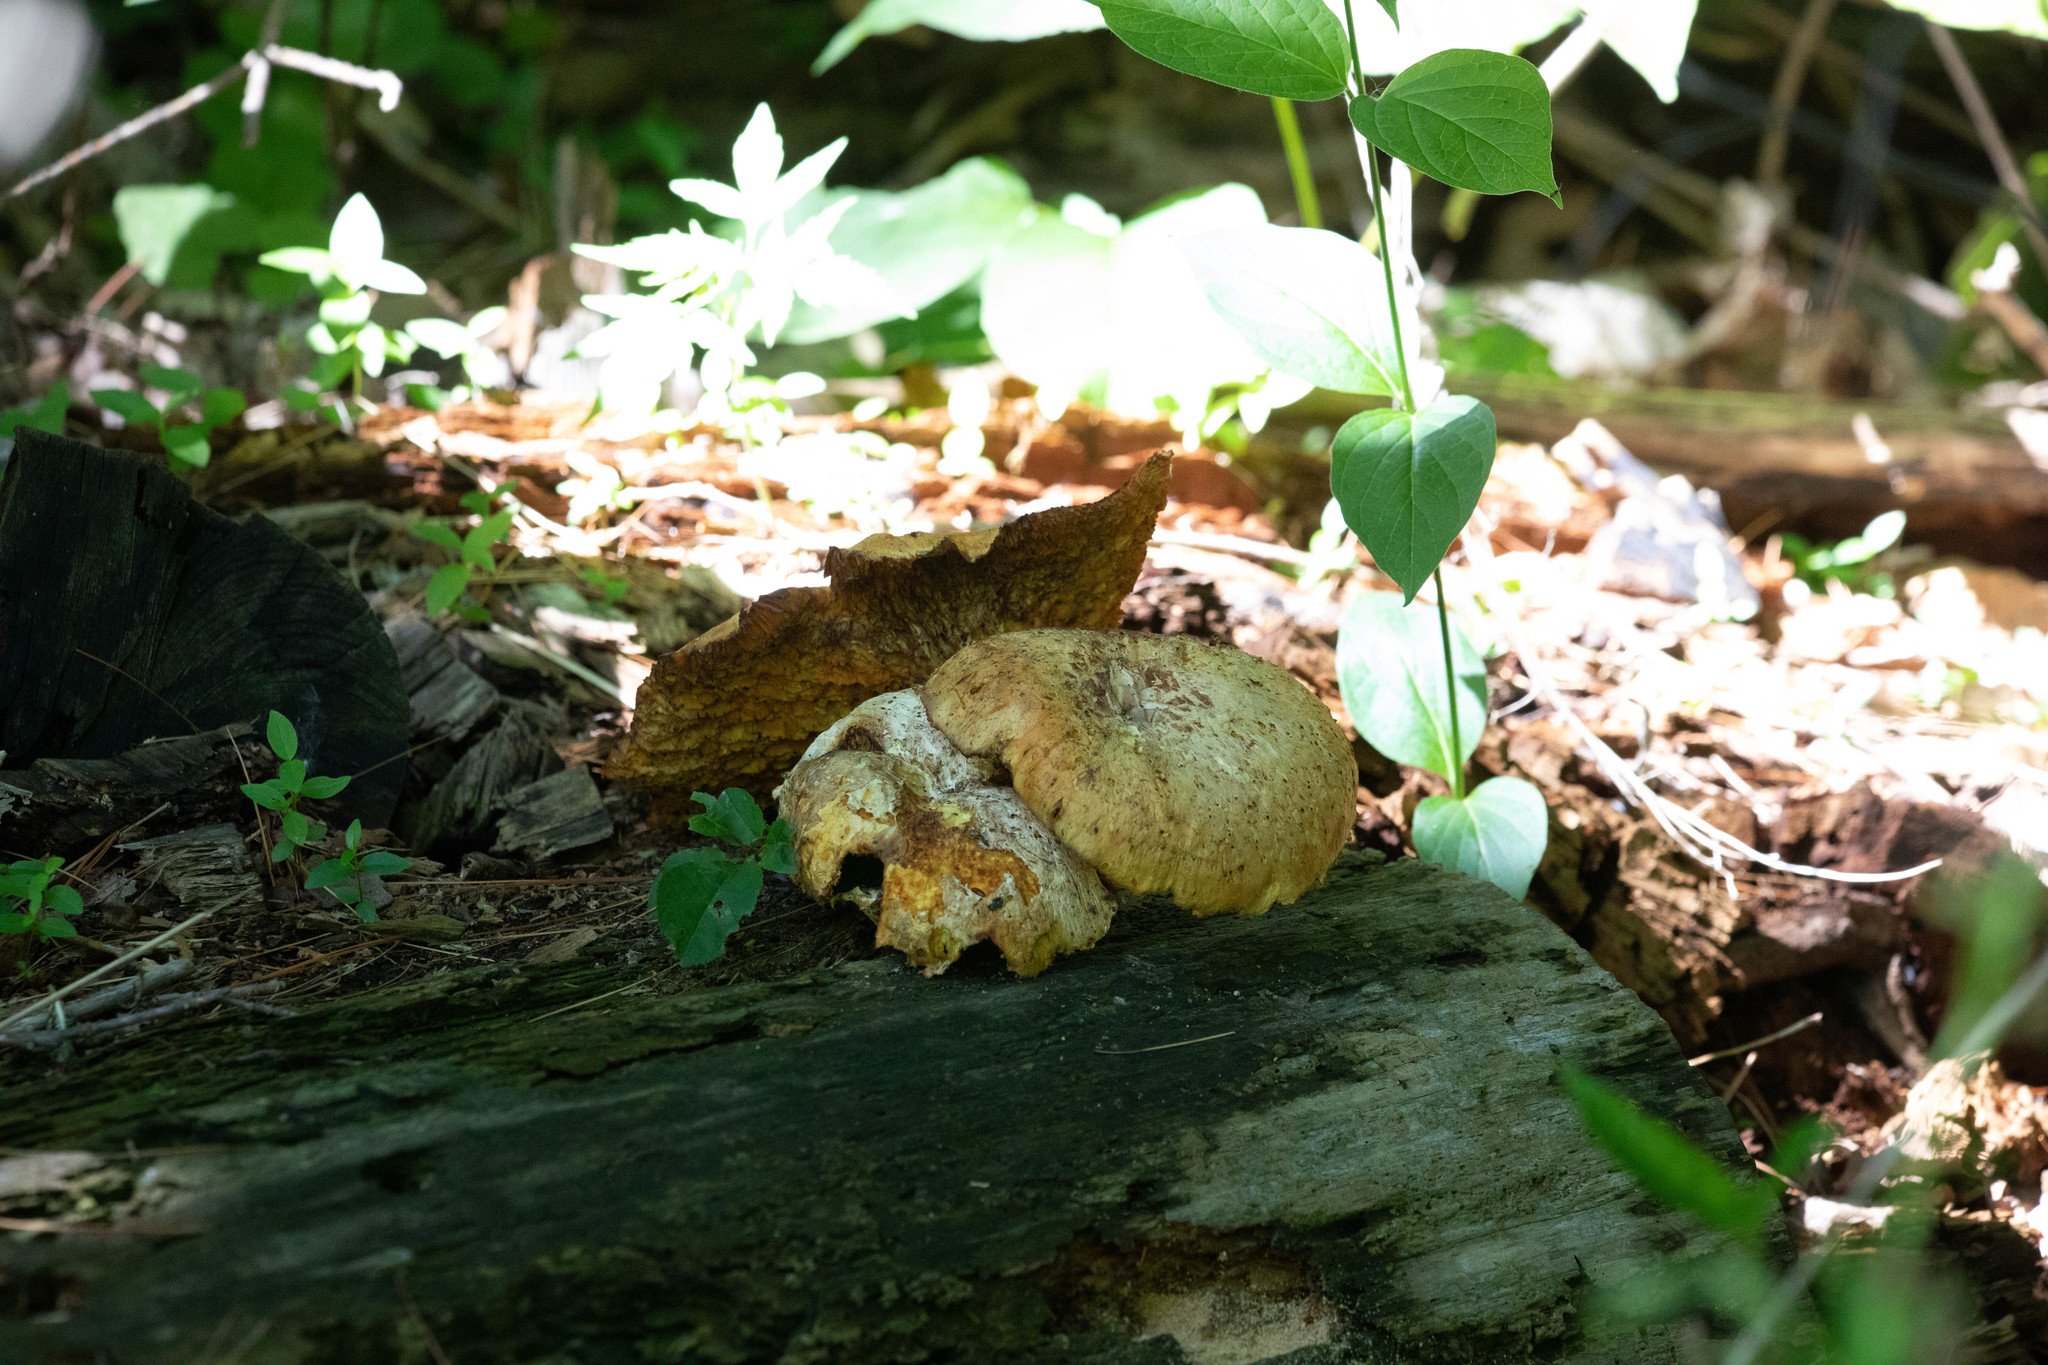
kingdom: Fungi
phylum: Basidiomycota
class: Agaricomycetes
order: Polyporales
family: Polyporaceae
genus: Cerioporus
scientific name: Cerioporus squamosus
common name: Dryad's saddle
